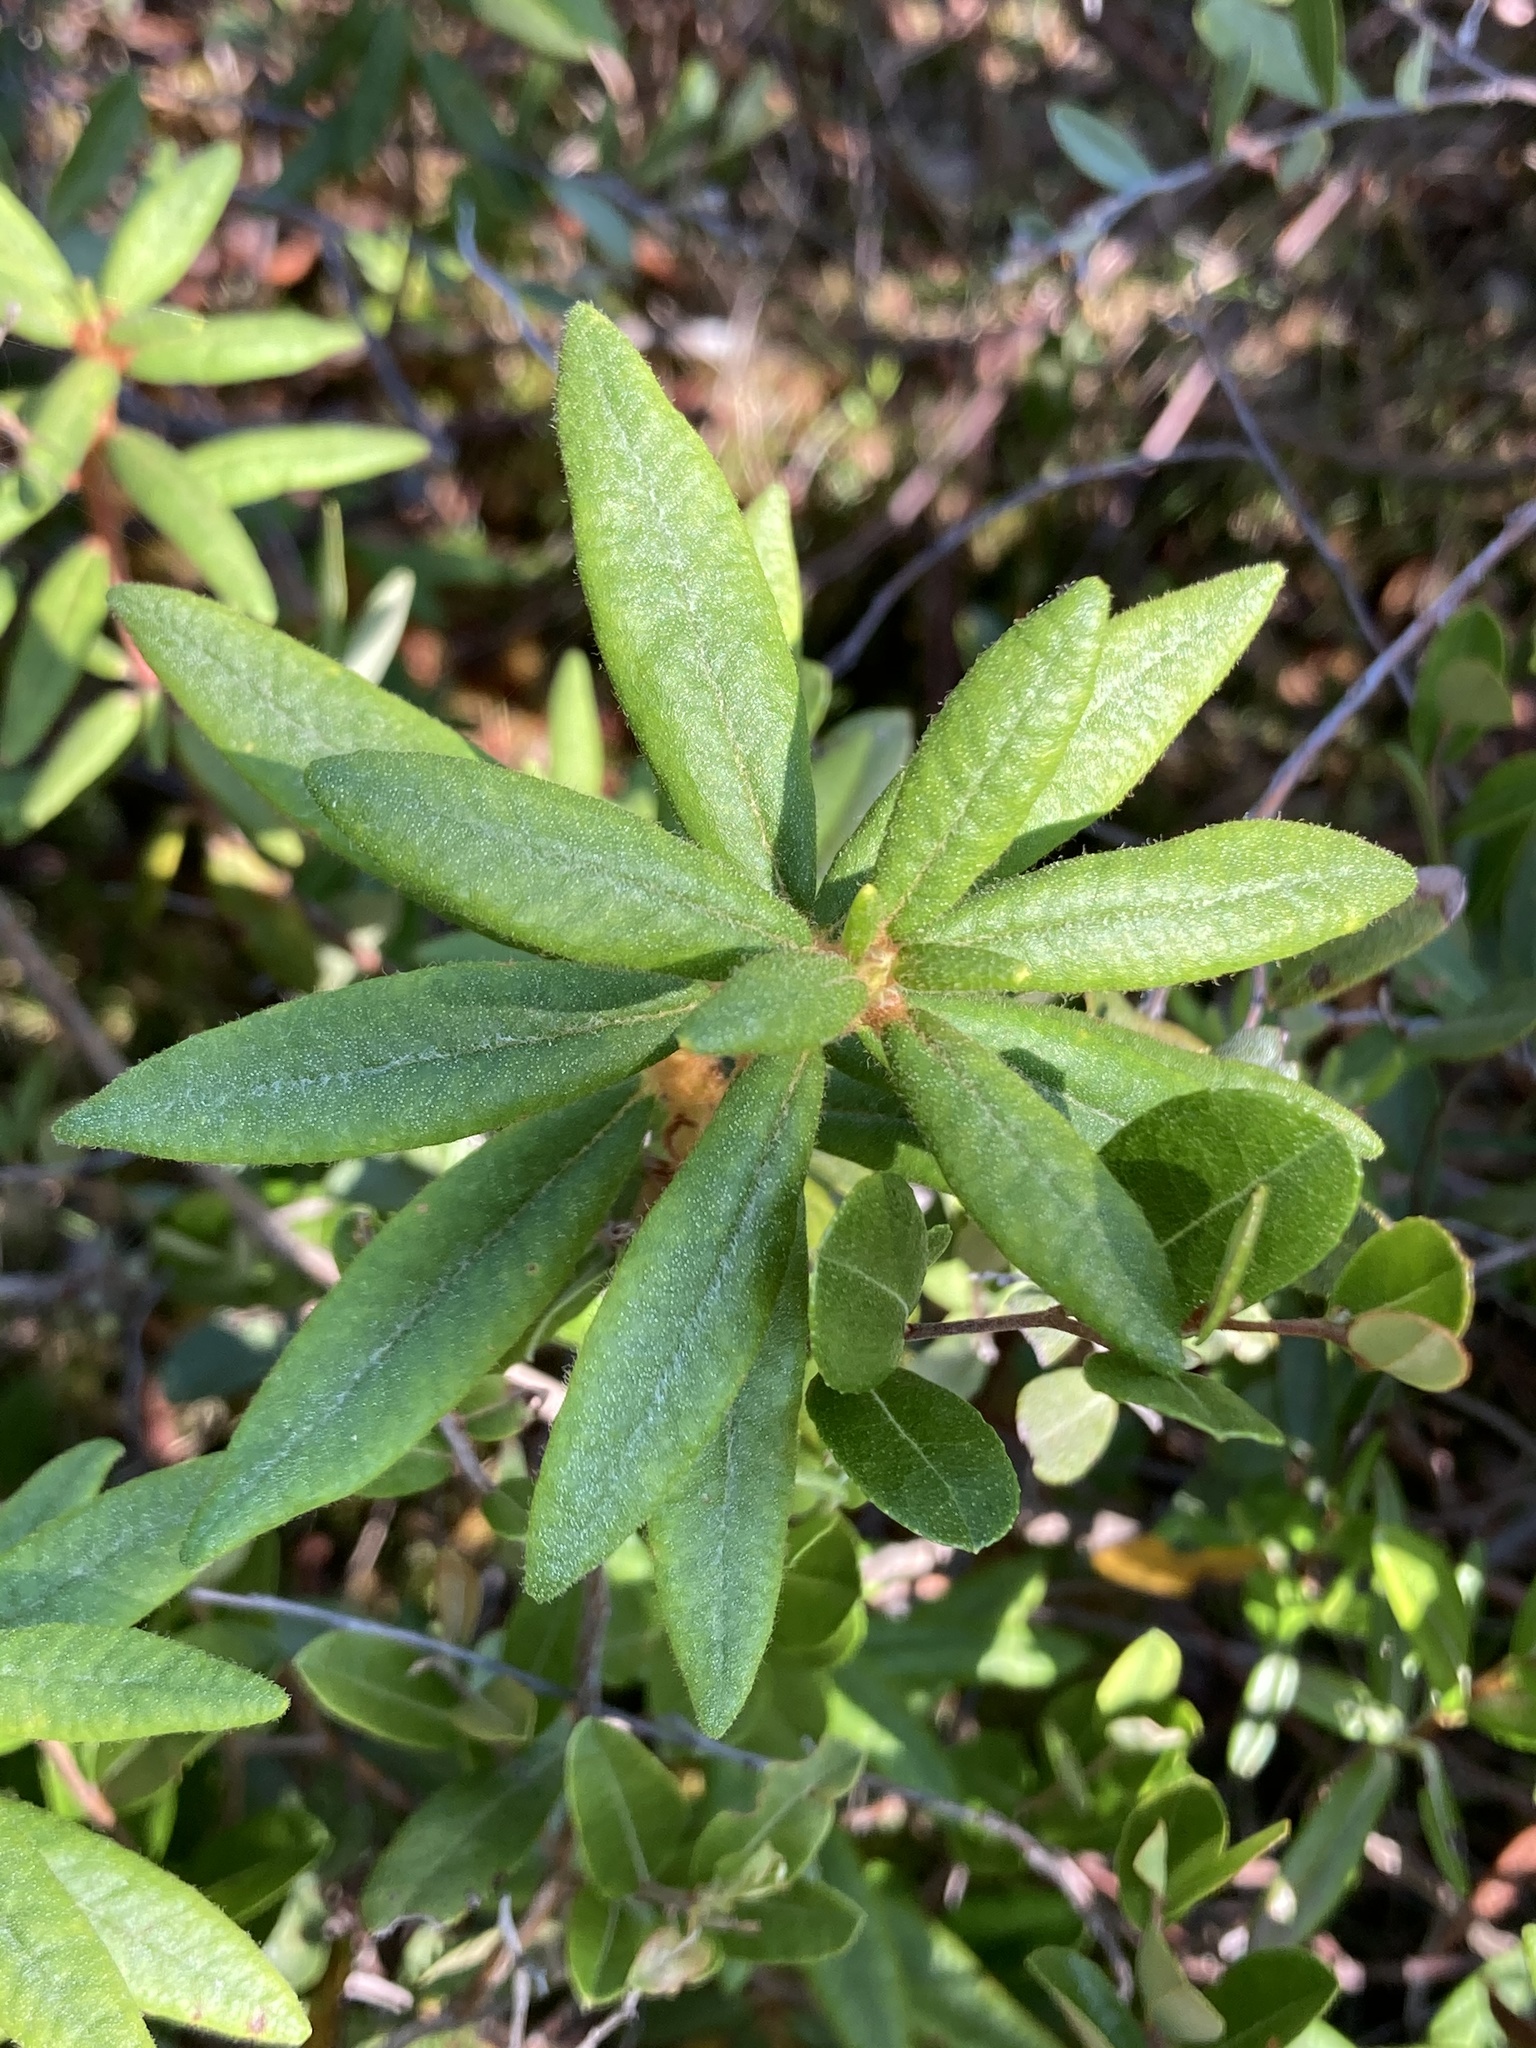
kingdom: Plantae
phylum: Tracheophyta
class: Magnoliopsida
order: Ericales
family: Ericaceae
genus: Rhododendron
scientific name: Rhododendron groenlandicum
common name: Bog labrador tea
